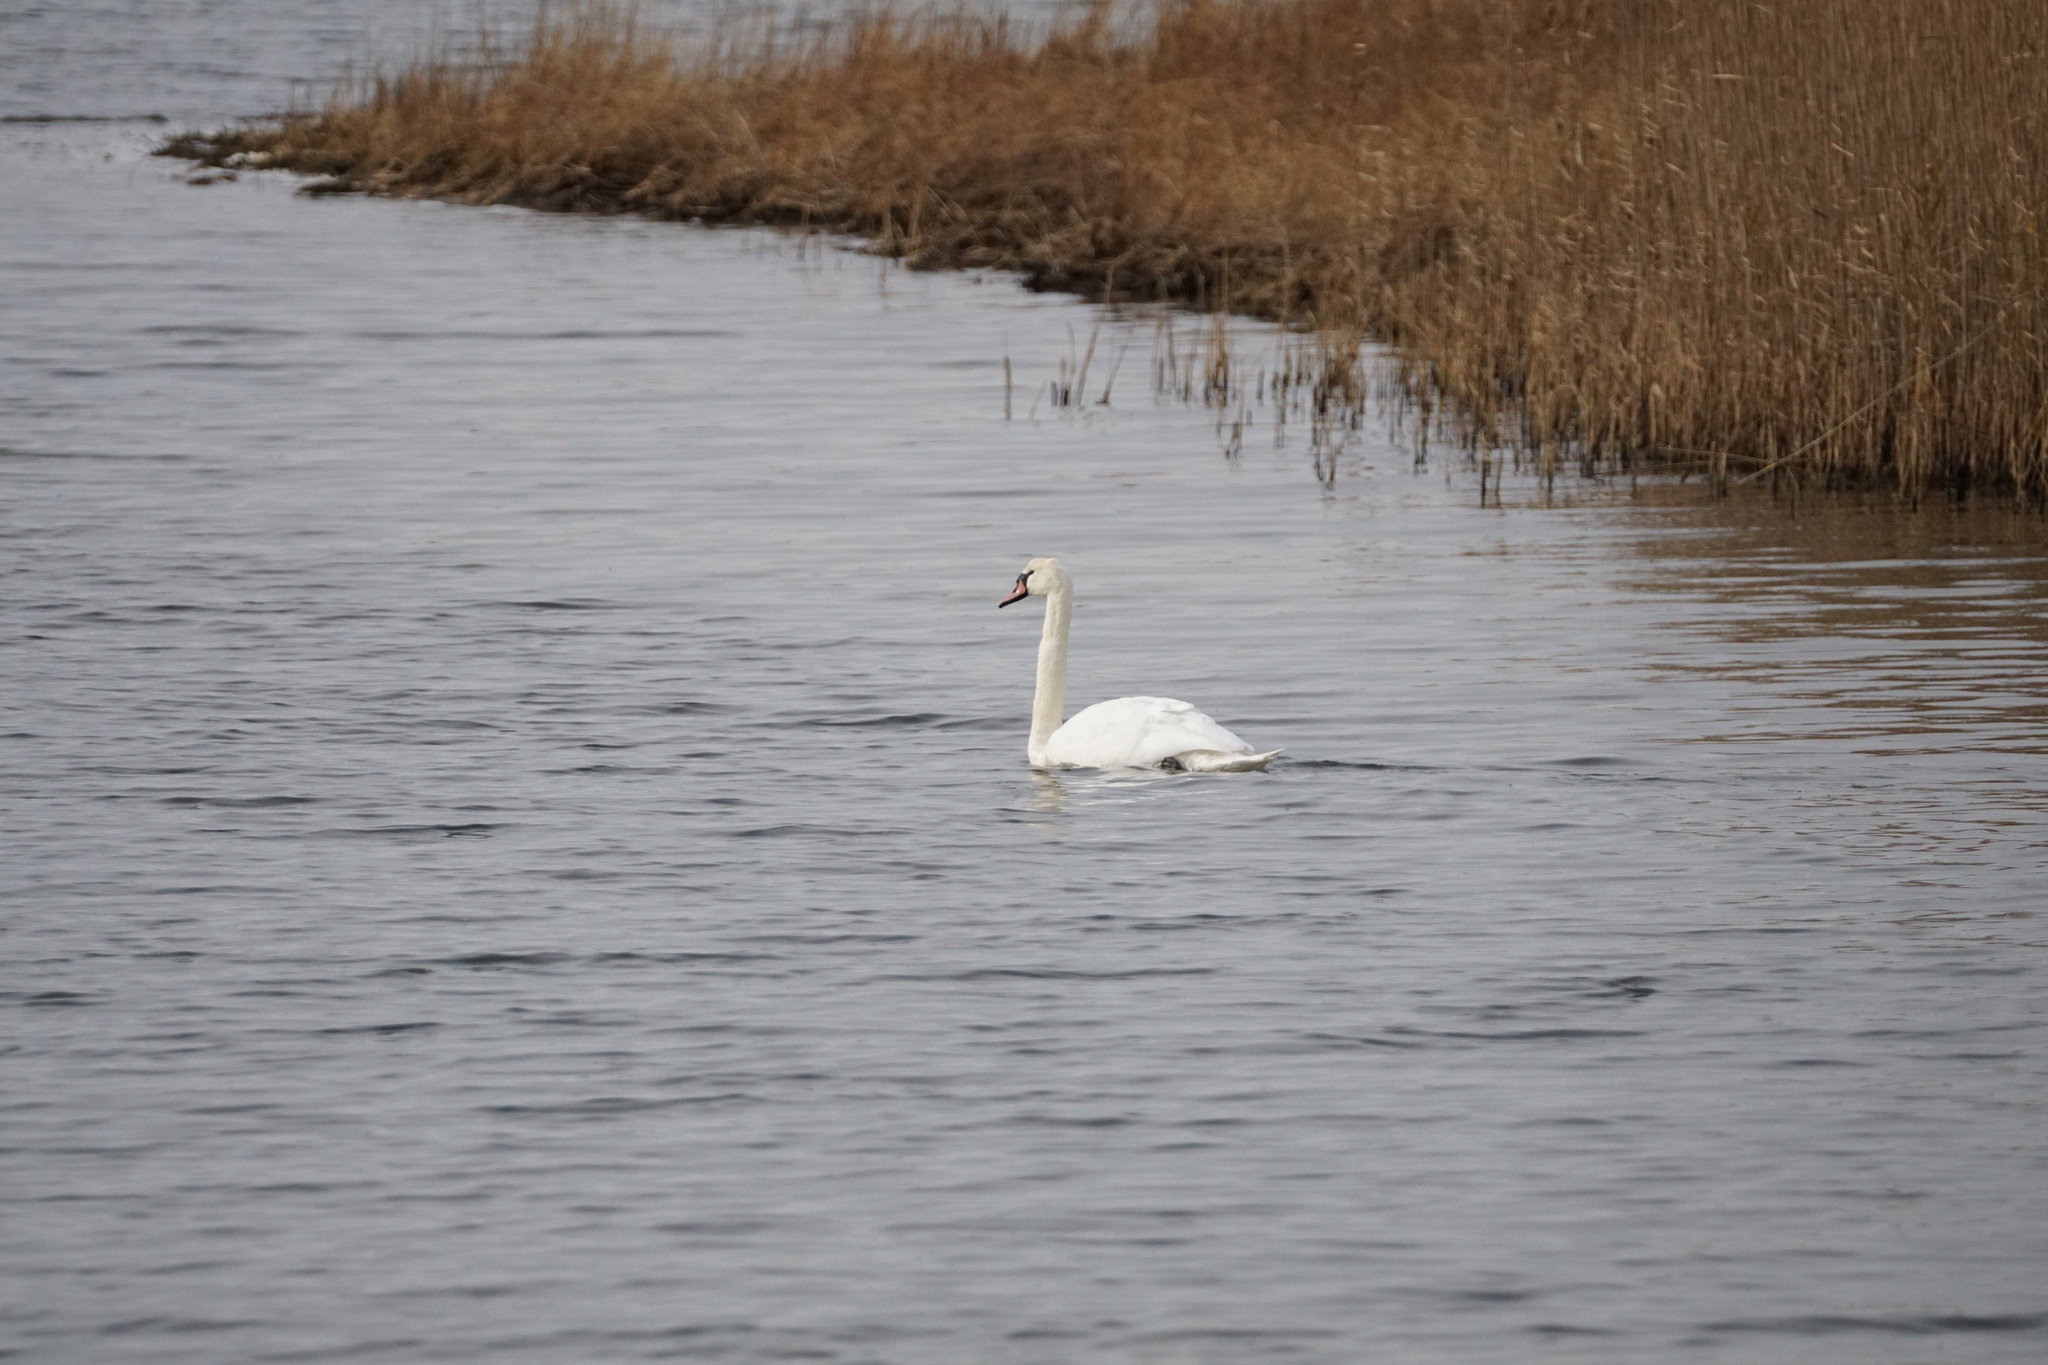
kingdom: Animalia
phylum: Chordata
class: Aves
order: Anseriformes
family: Anatidae
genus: Cygnus
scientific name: Cygnus olor
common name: Mute swan
